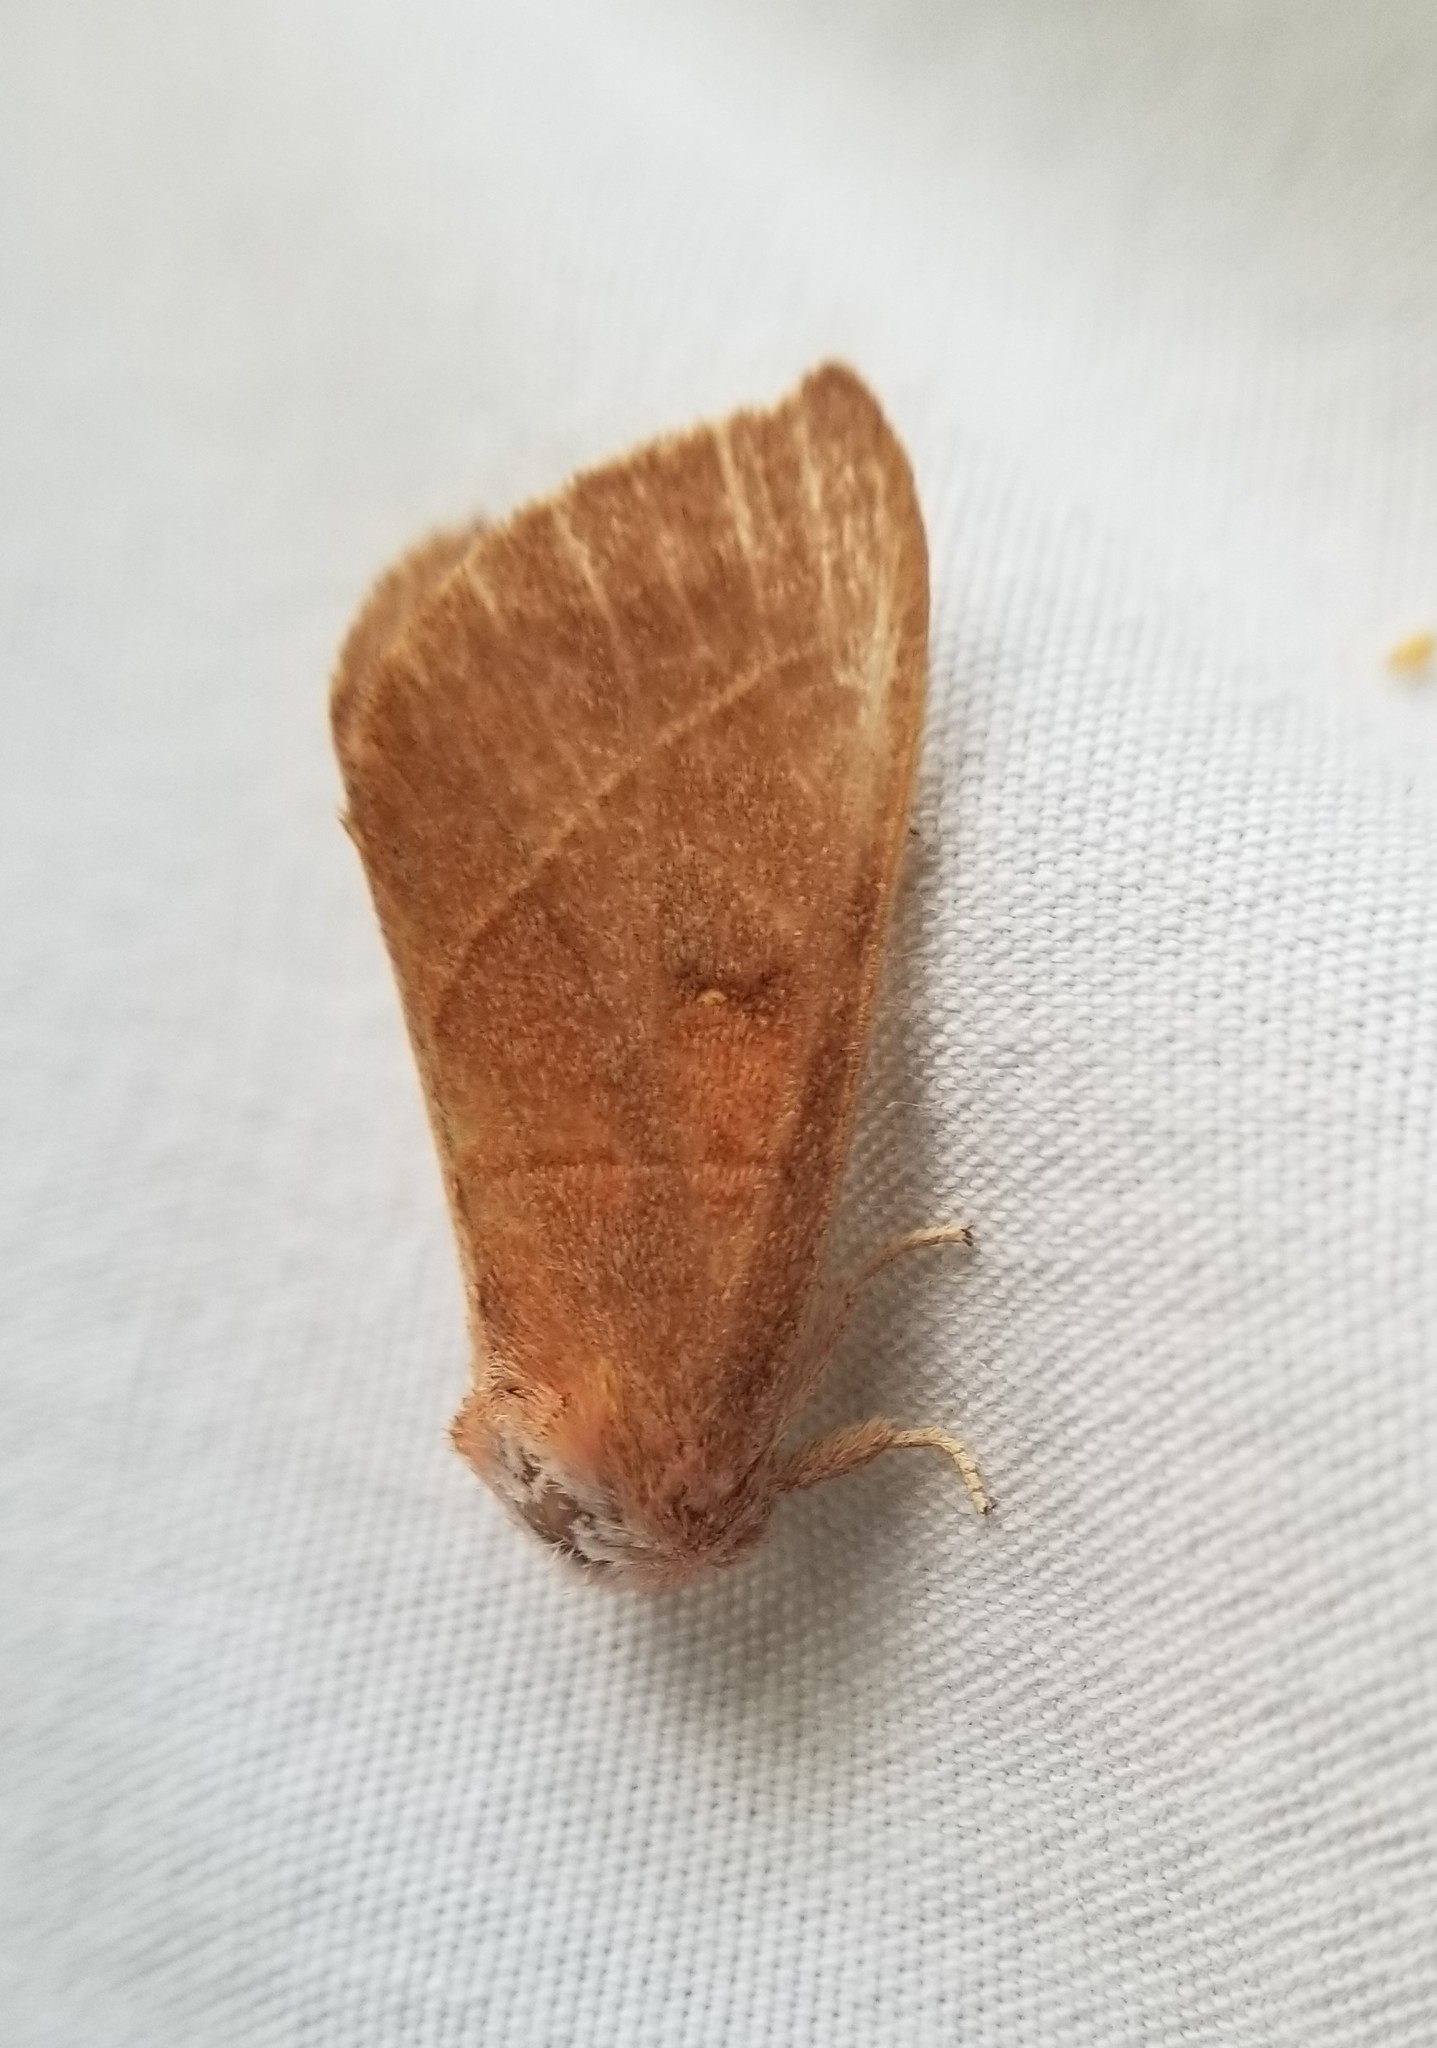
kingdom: Animalia
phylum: Arthropoda
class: Insecta
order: Lepidoptera
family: Notodontidae
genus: Nadata
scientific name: Nadata gibbosa
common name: White-dotted prominent
